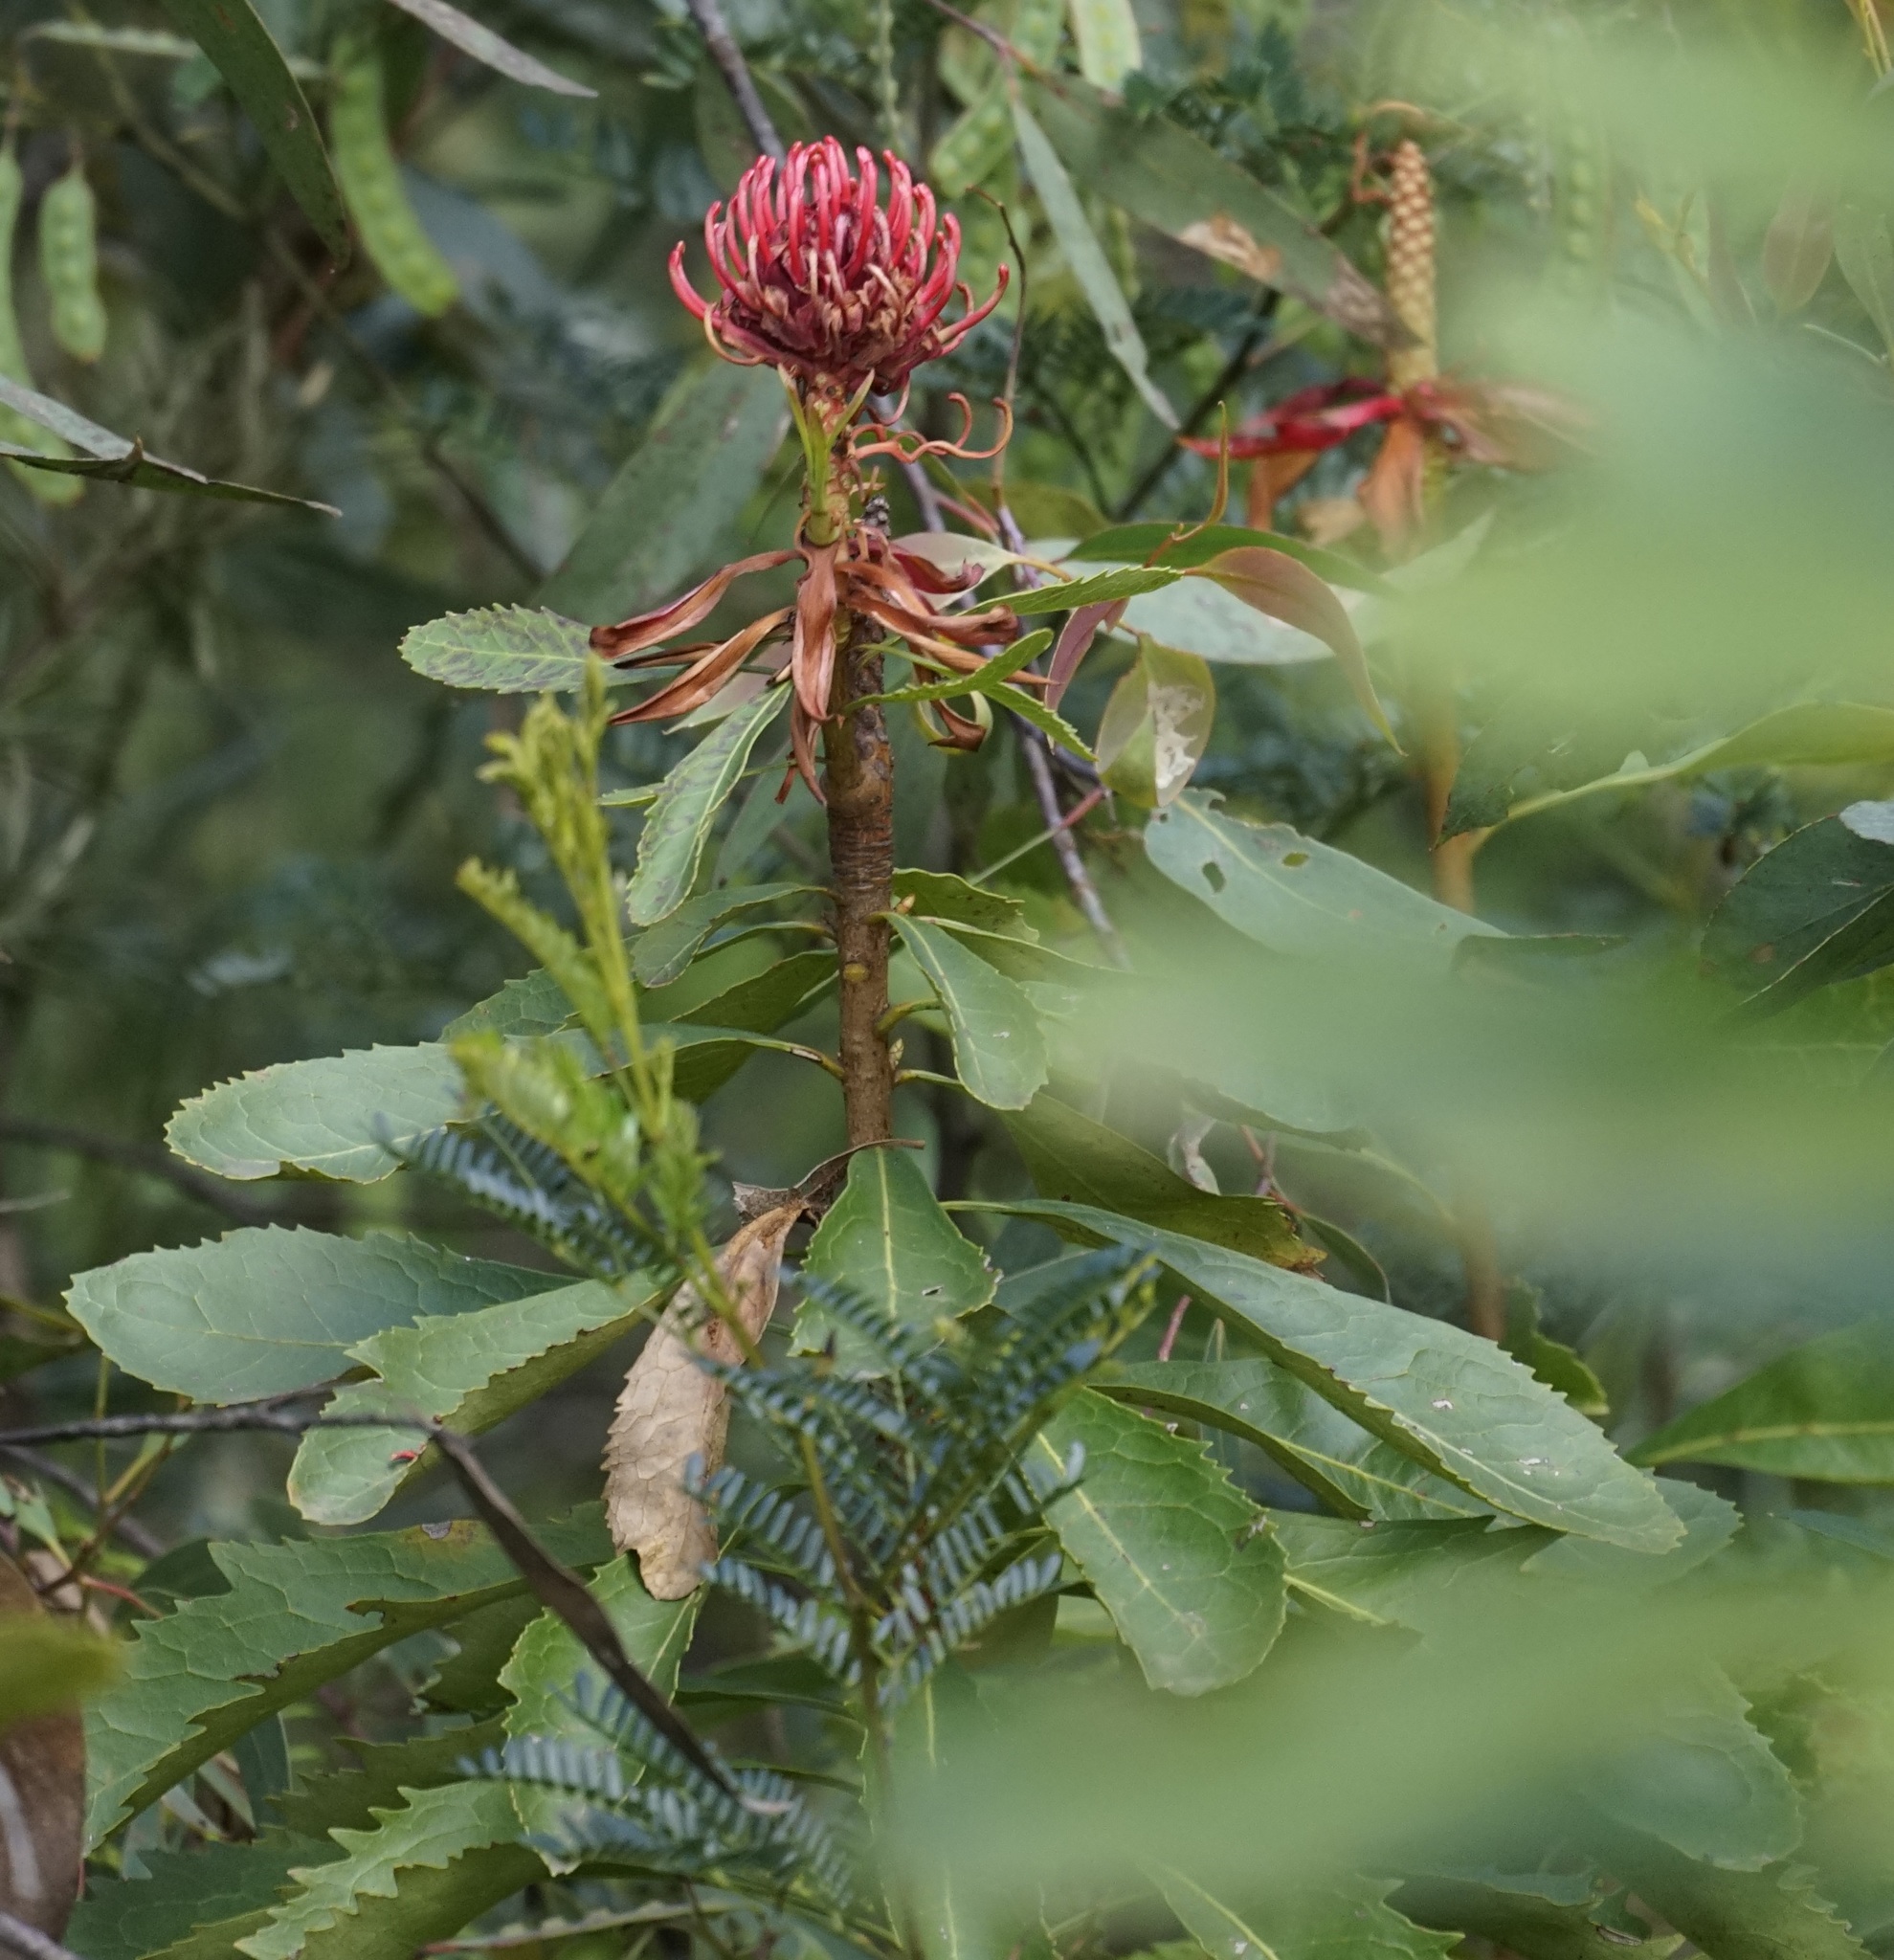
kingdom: Plantae
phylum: Tracheophyta
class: Magnoliopsida
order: Proteales
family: Proteaceae
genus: Telopea
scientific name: Telopea speciosissima
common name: New south wales waratah
